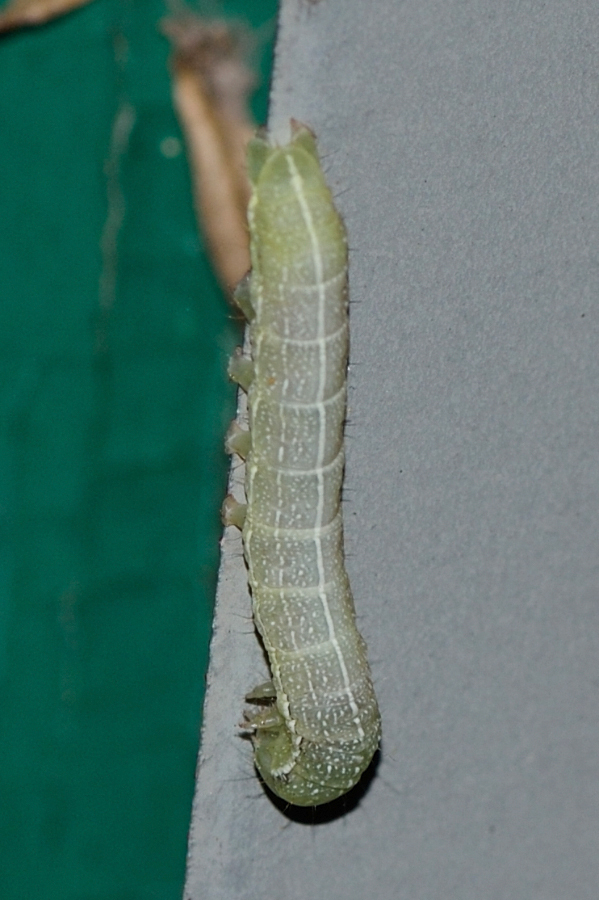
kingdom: Animalia
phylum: Arthropoda
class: Insecta
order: Lepidoptera
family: Noctuidae
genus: Orthosia
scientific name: Orthosia incerta
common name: Clouded drab
